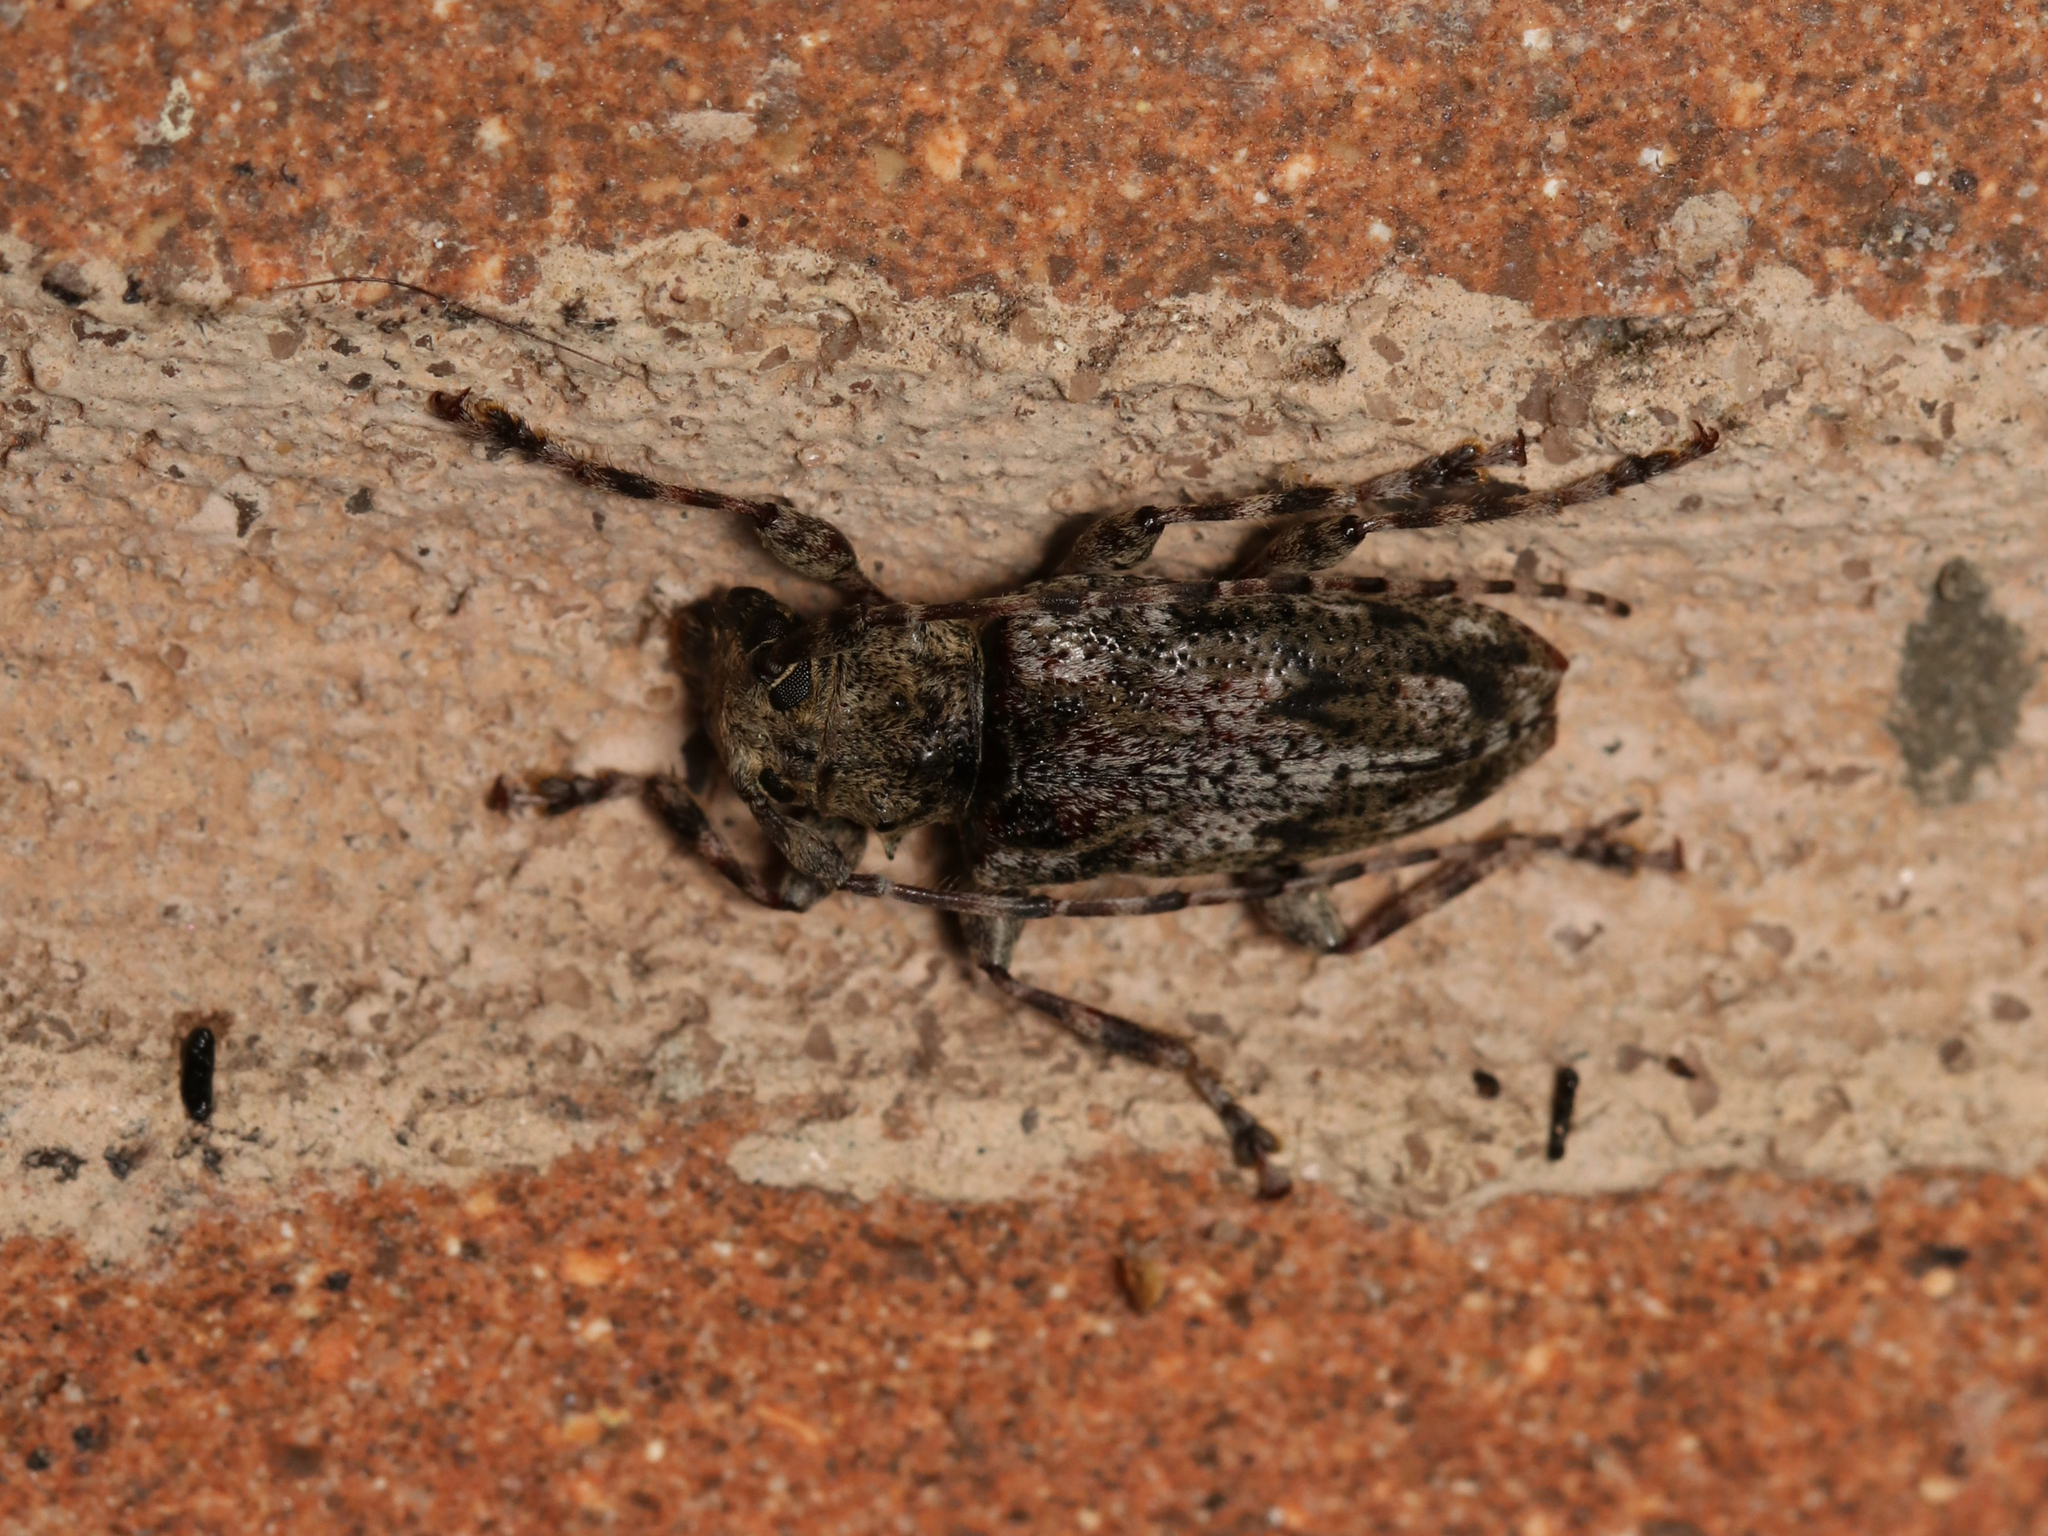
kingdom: Animalia
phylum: Arthropoda
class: Insecta
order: Coleoptera
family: Cerambycidae
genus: Aegomorphus
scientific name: Aegomorphus modestus
